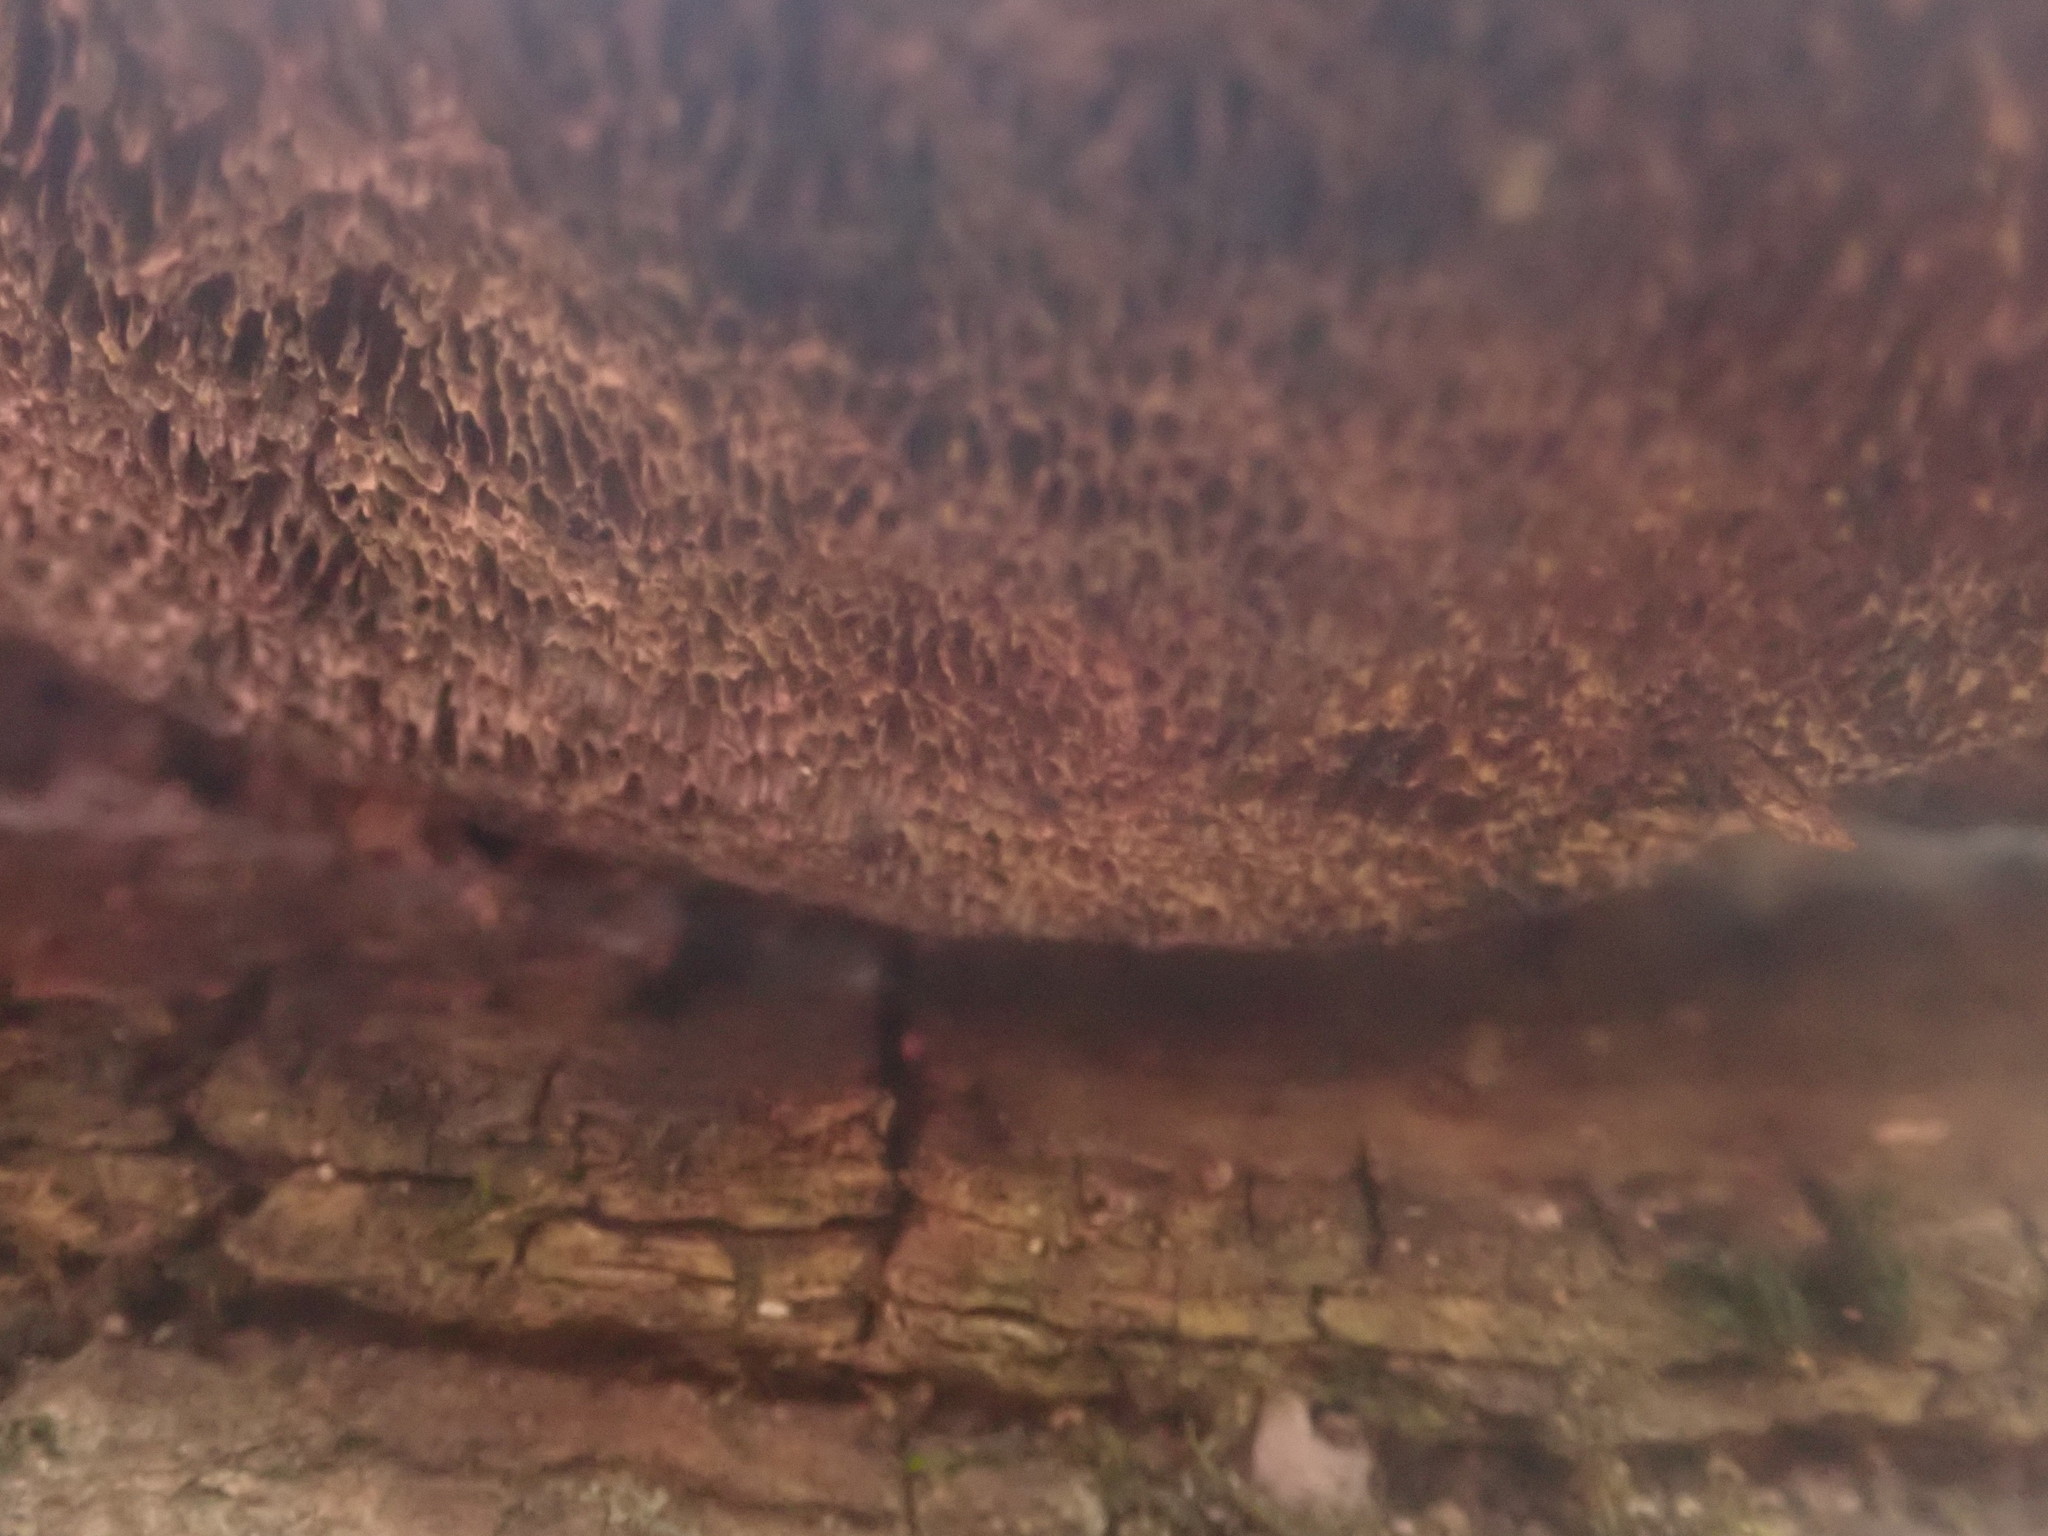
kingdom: Fungi
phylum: Basidiomycota
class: Agaricomycetes
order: Polyporales
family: Polyporaceae
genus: Daedaleopsis
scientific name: Daedaleopsis confragosa
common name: Blushing bracket
